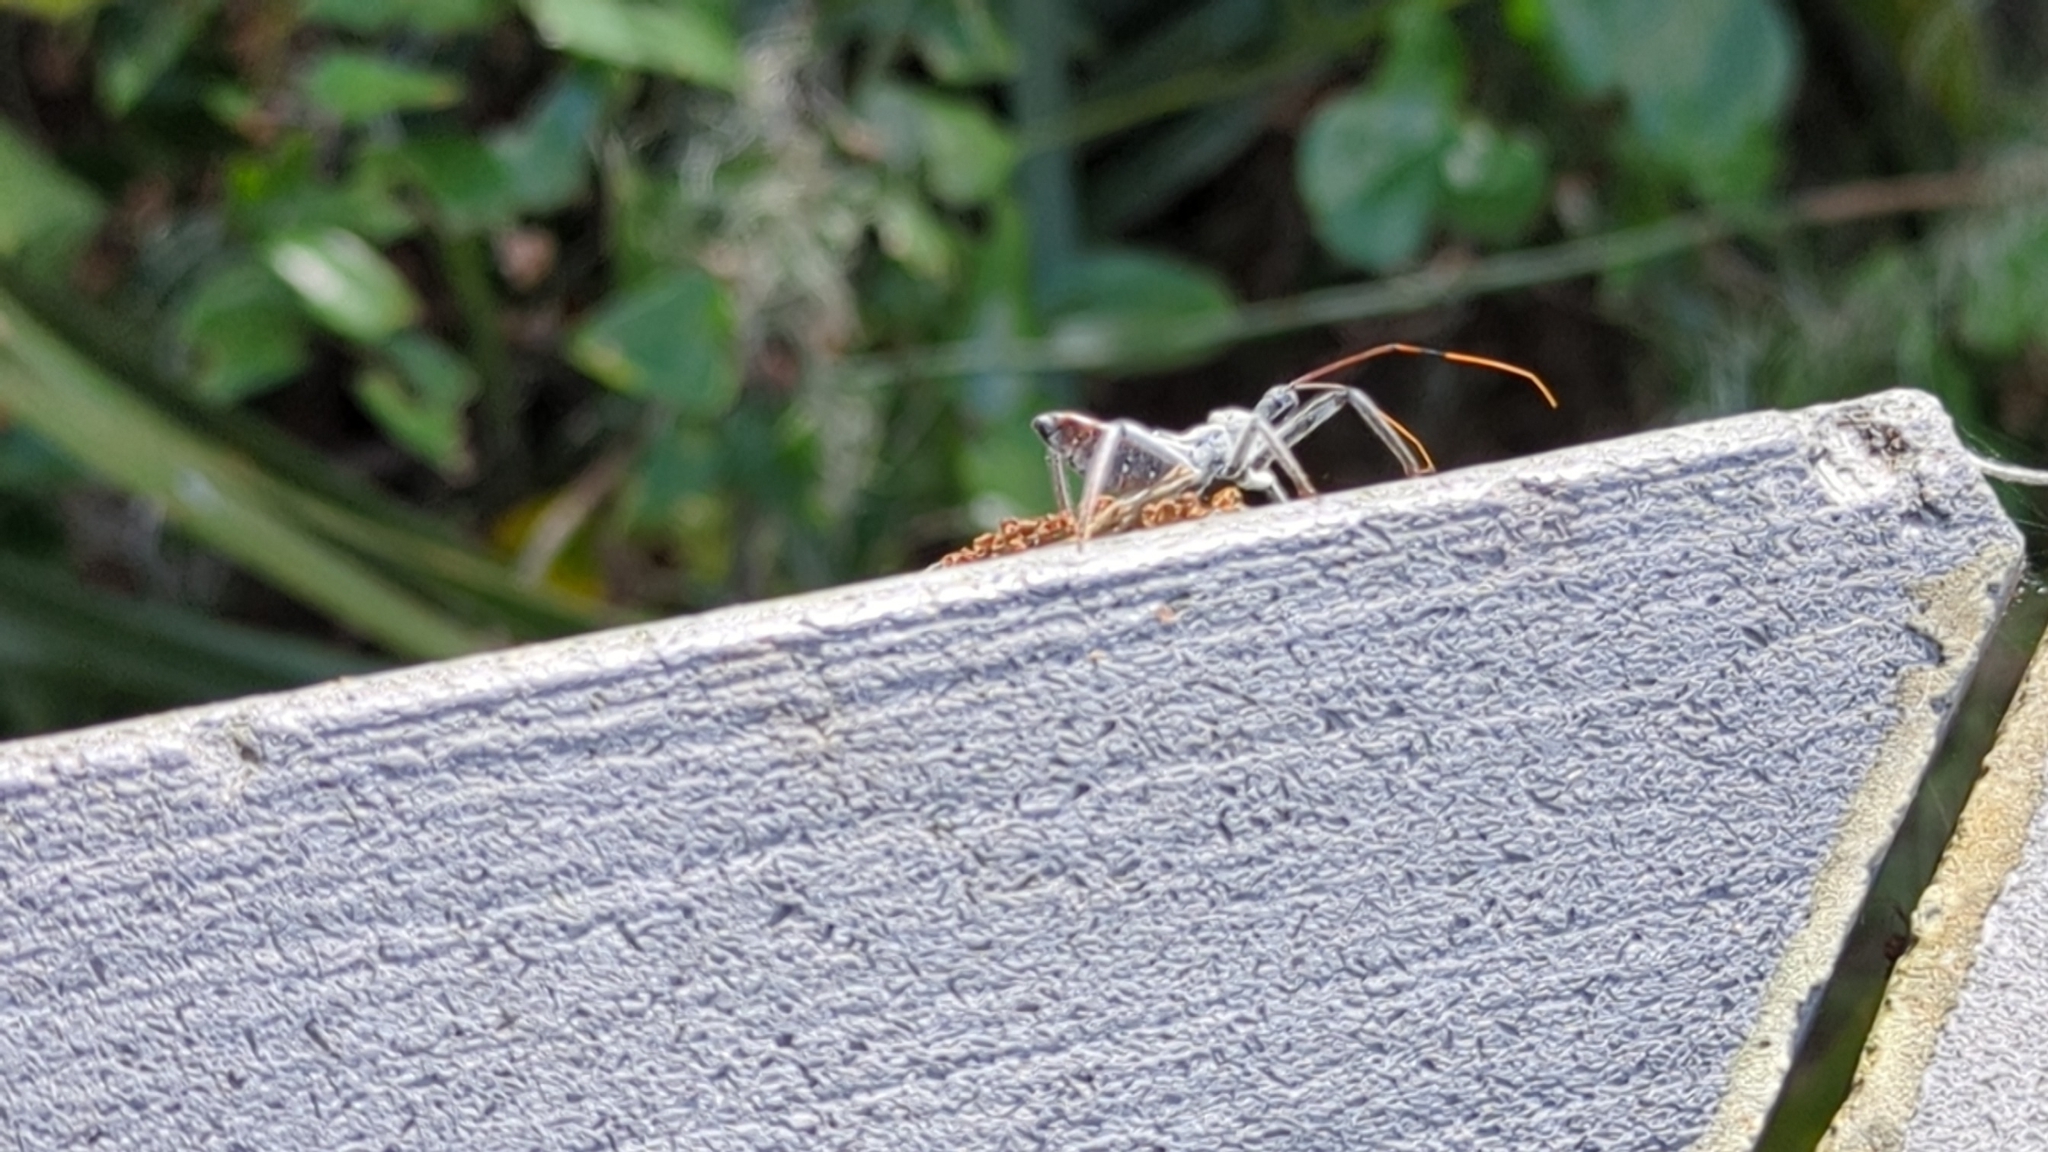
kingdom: Animalia
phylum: Arthropoda
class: Insecta
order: Hemiptera
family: Reduviidae
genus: Arilus
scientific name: Arilus cristatus
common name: North american wheel bug
